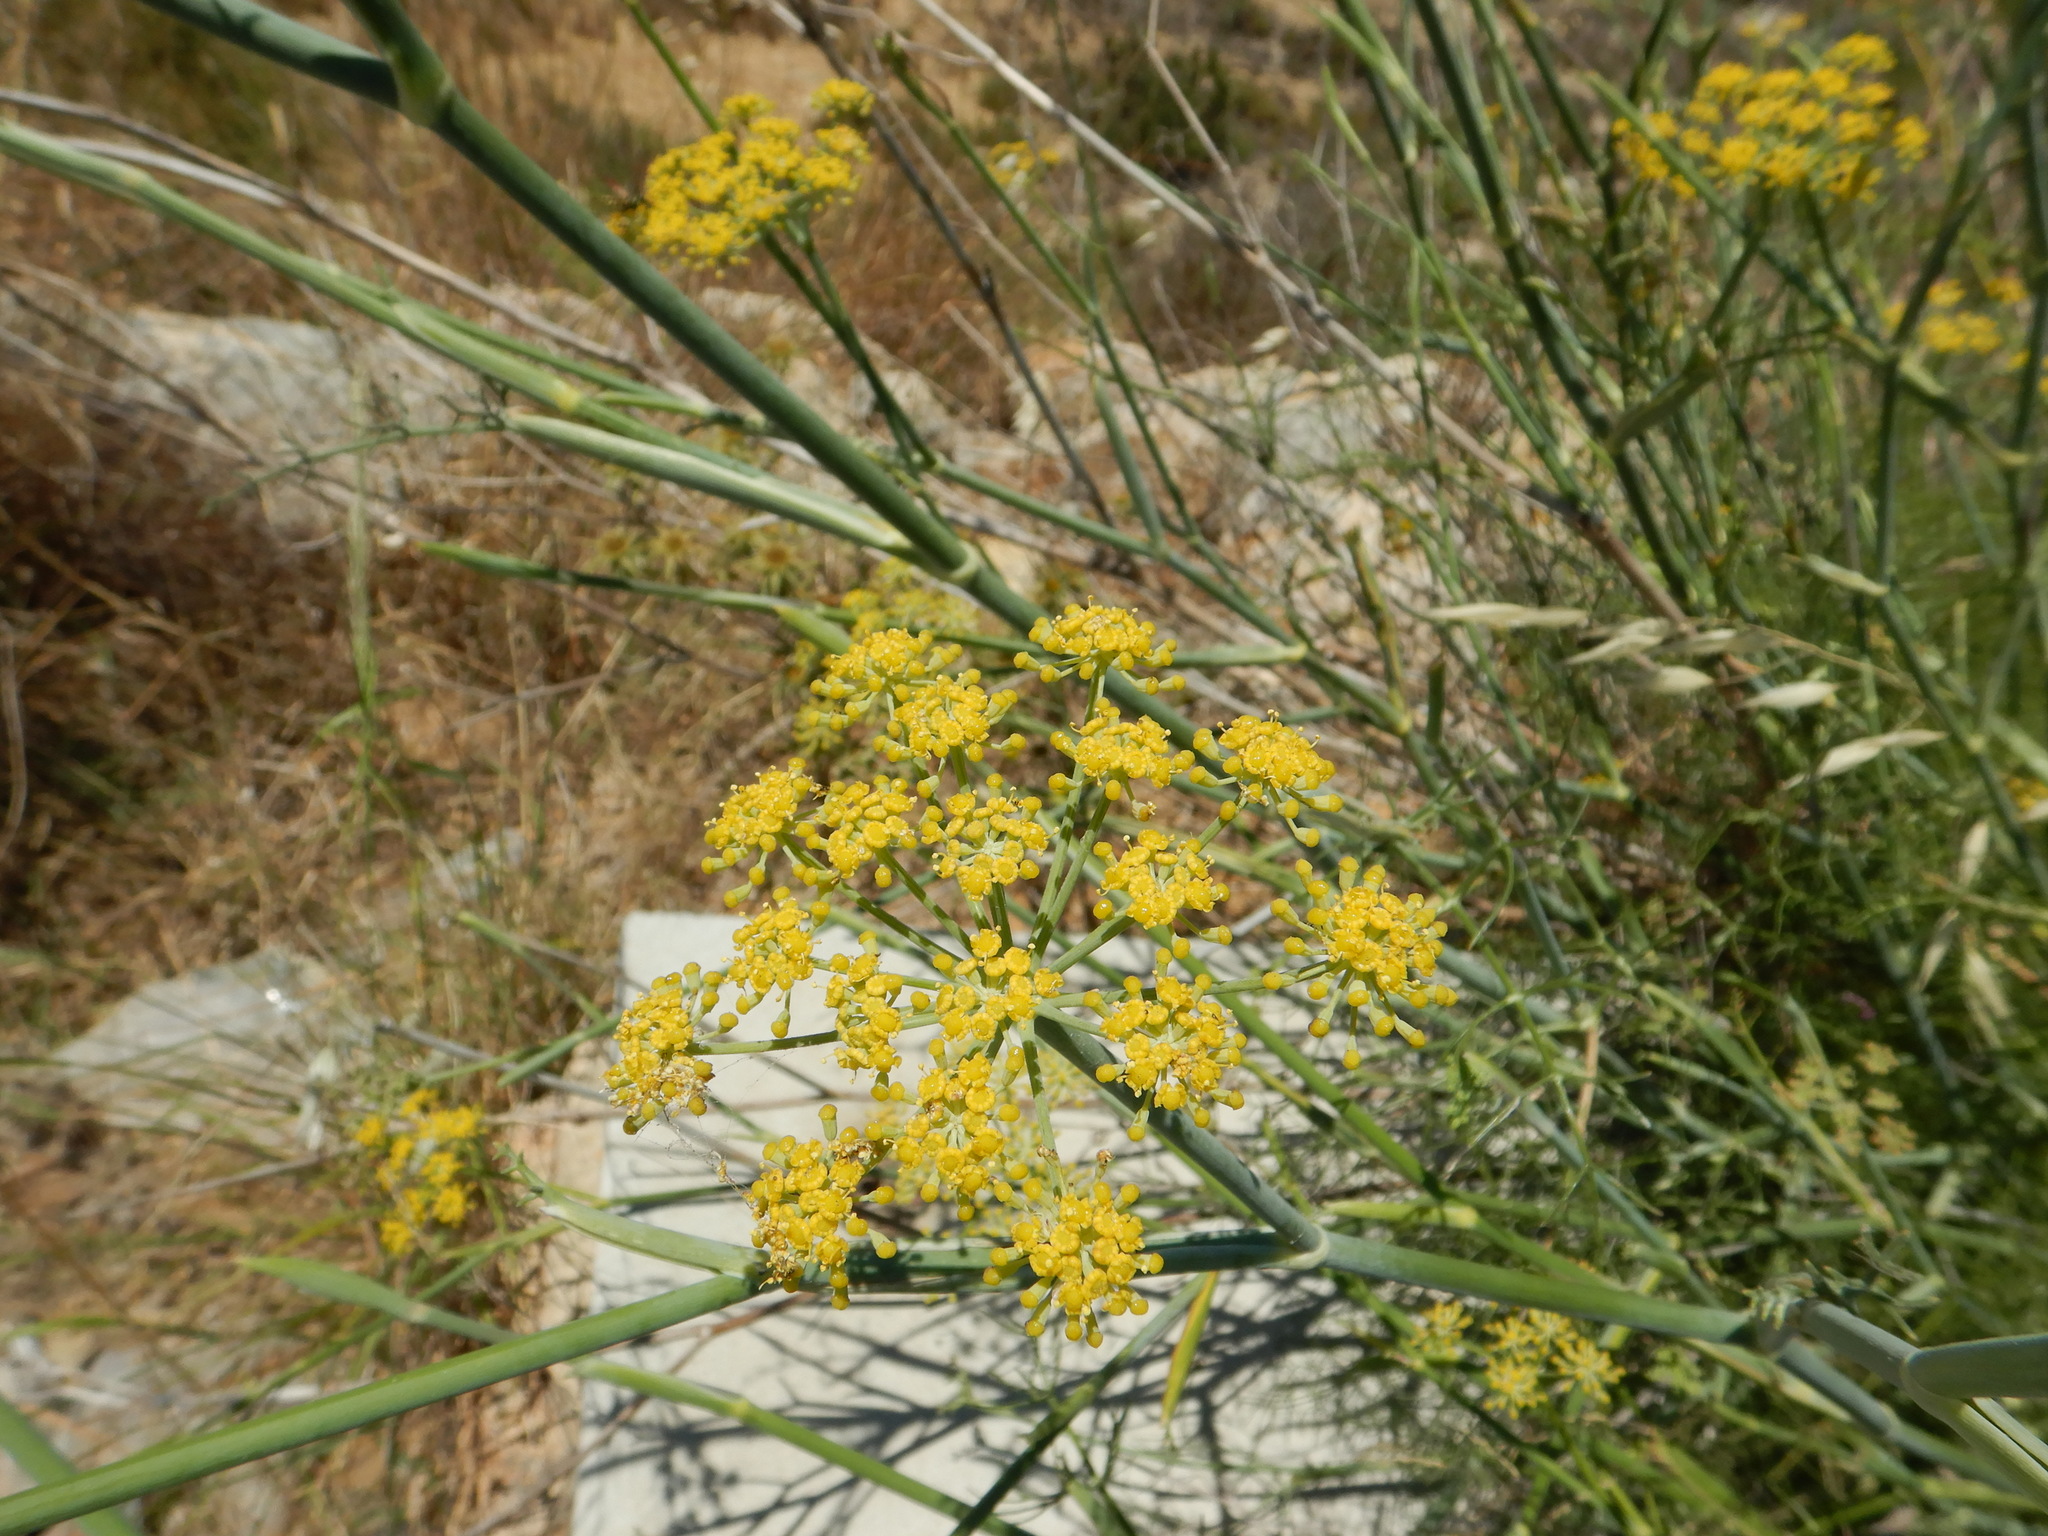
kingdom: Plantae
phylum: Tracheophyta
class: Magnoliopsida
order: Apiales
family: Apiaceae
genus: Foeniculum
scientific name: Foeniculum vulgare
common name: Fennel
